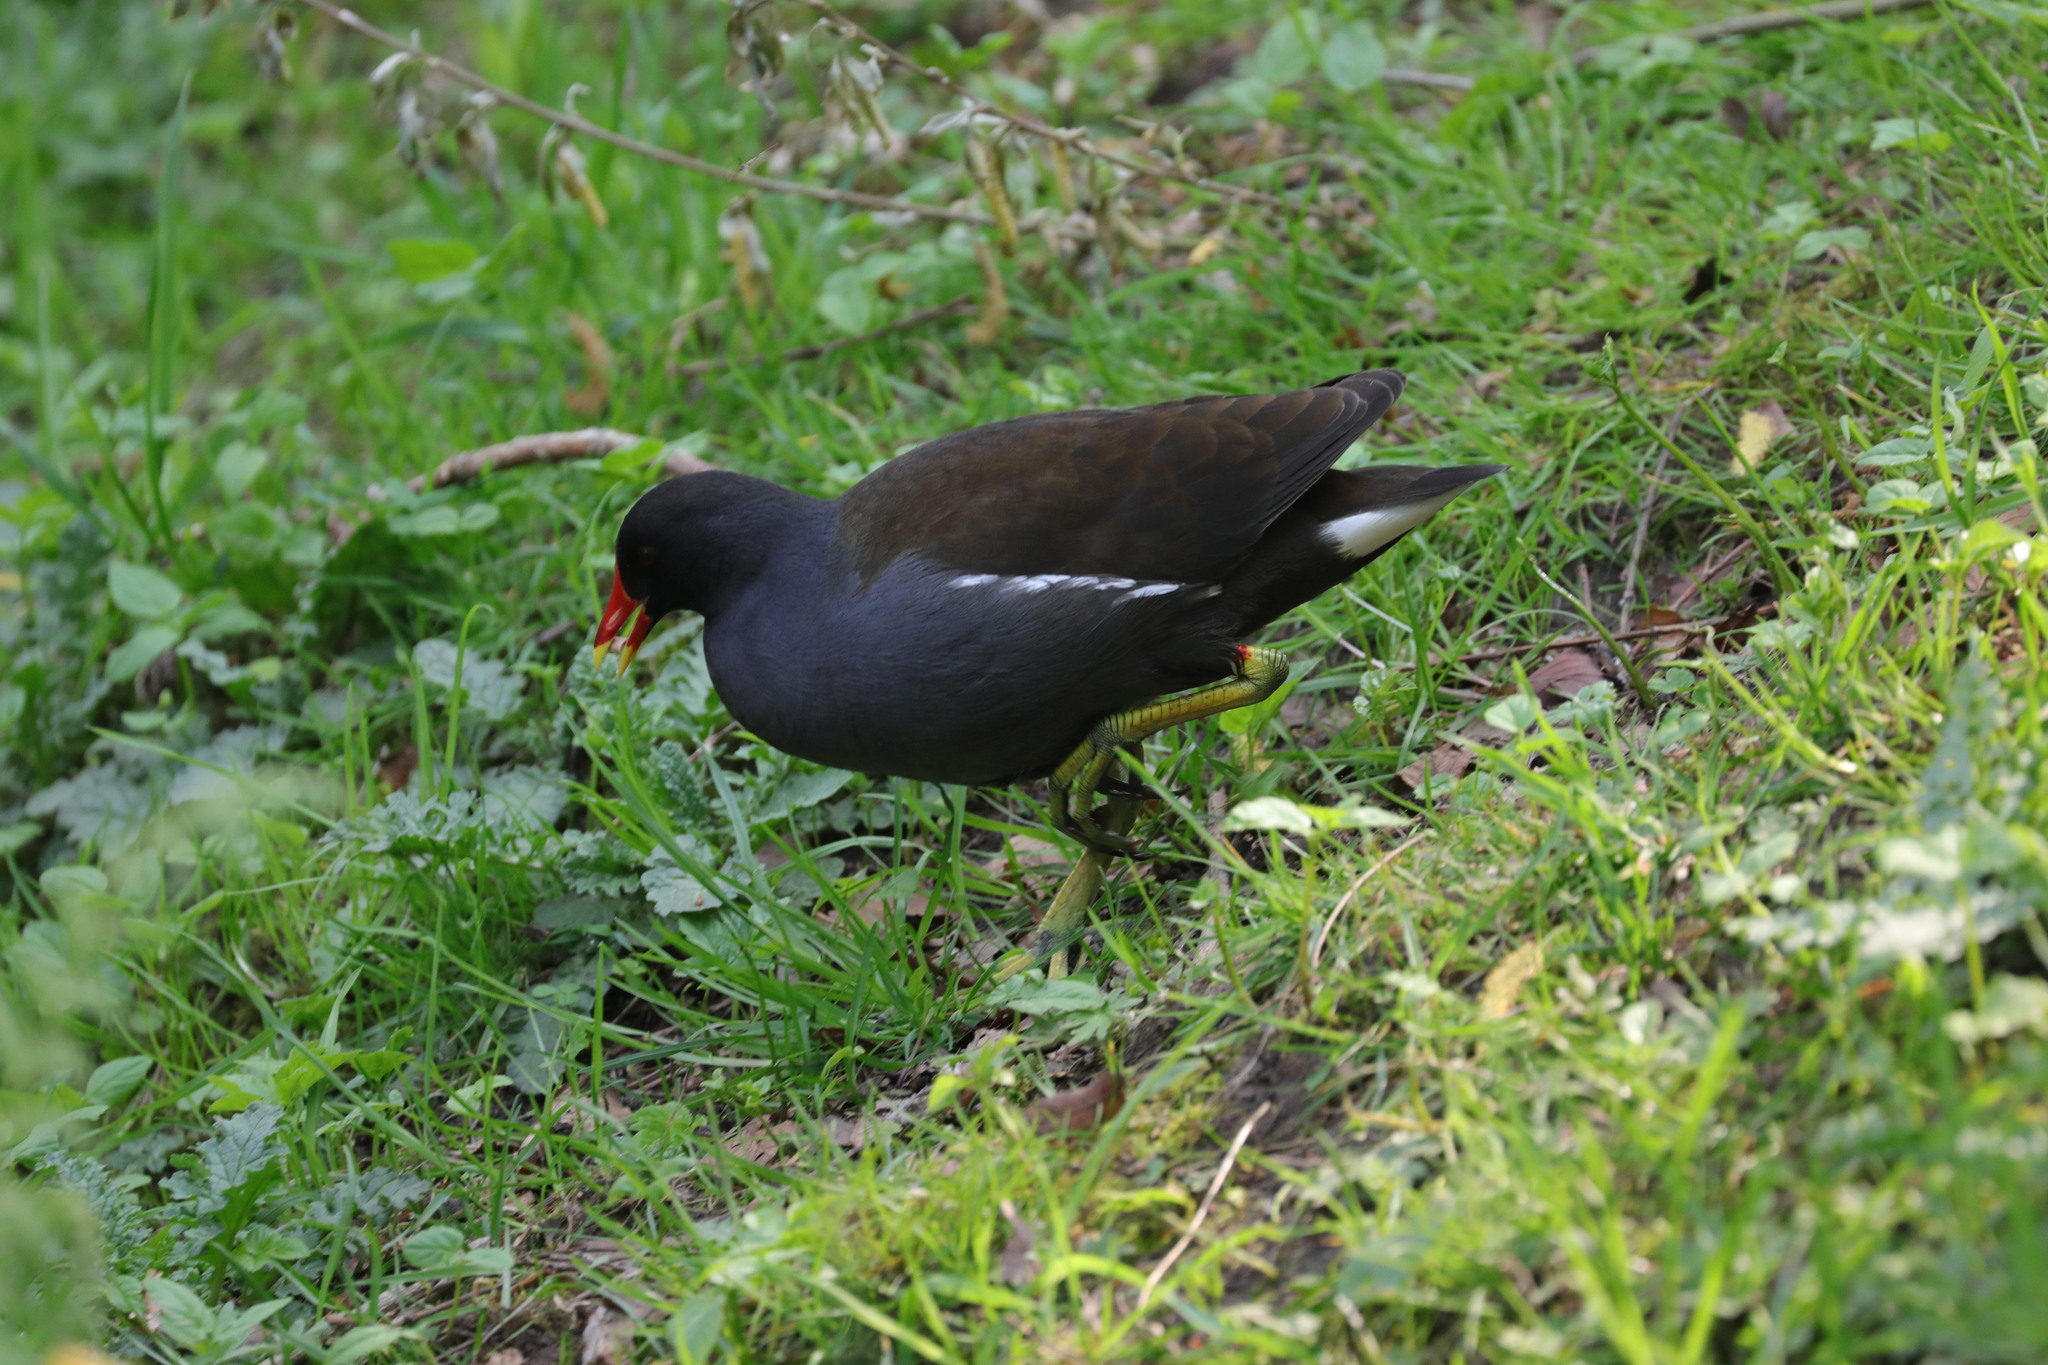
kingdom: Animalia
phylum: Chordata
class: Aves
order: Gruiformes
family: Rallidae
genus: Gallinula
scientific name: Gallinula chloropus
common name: Common moorhen
